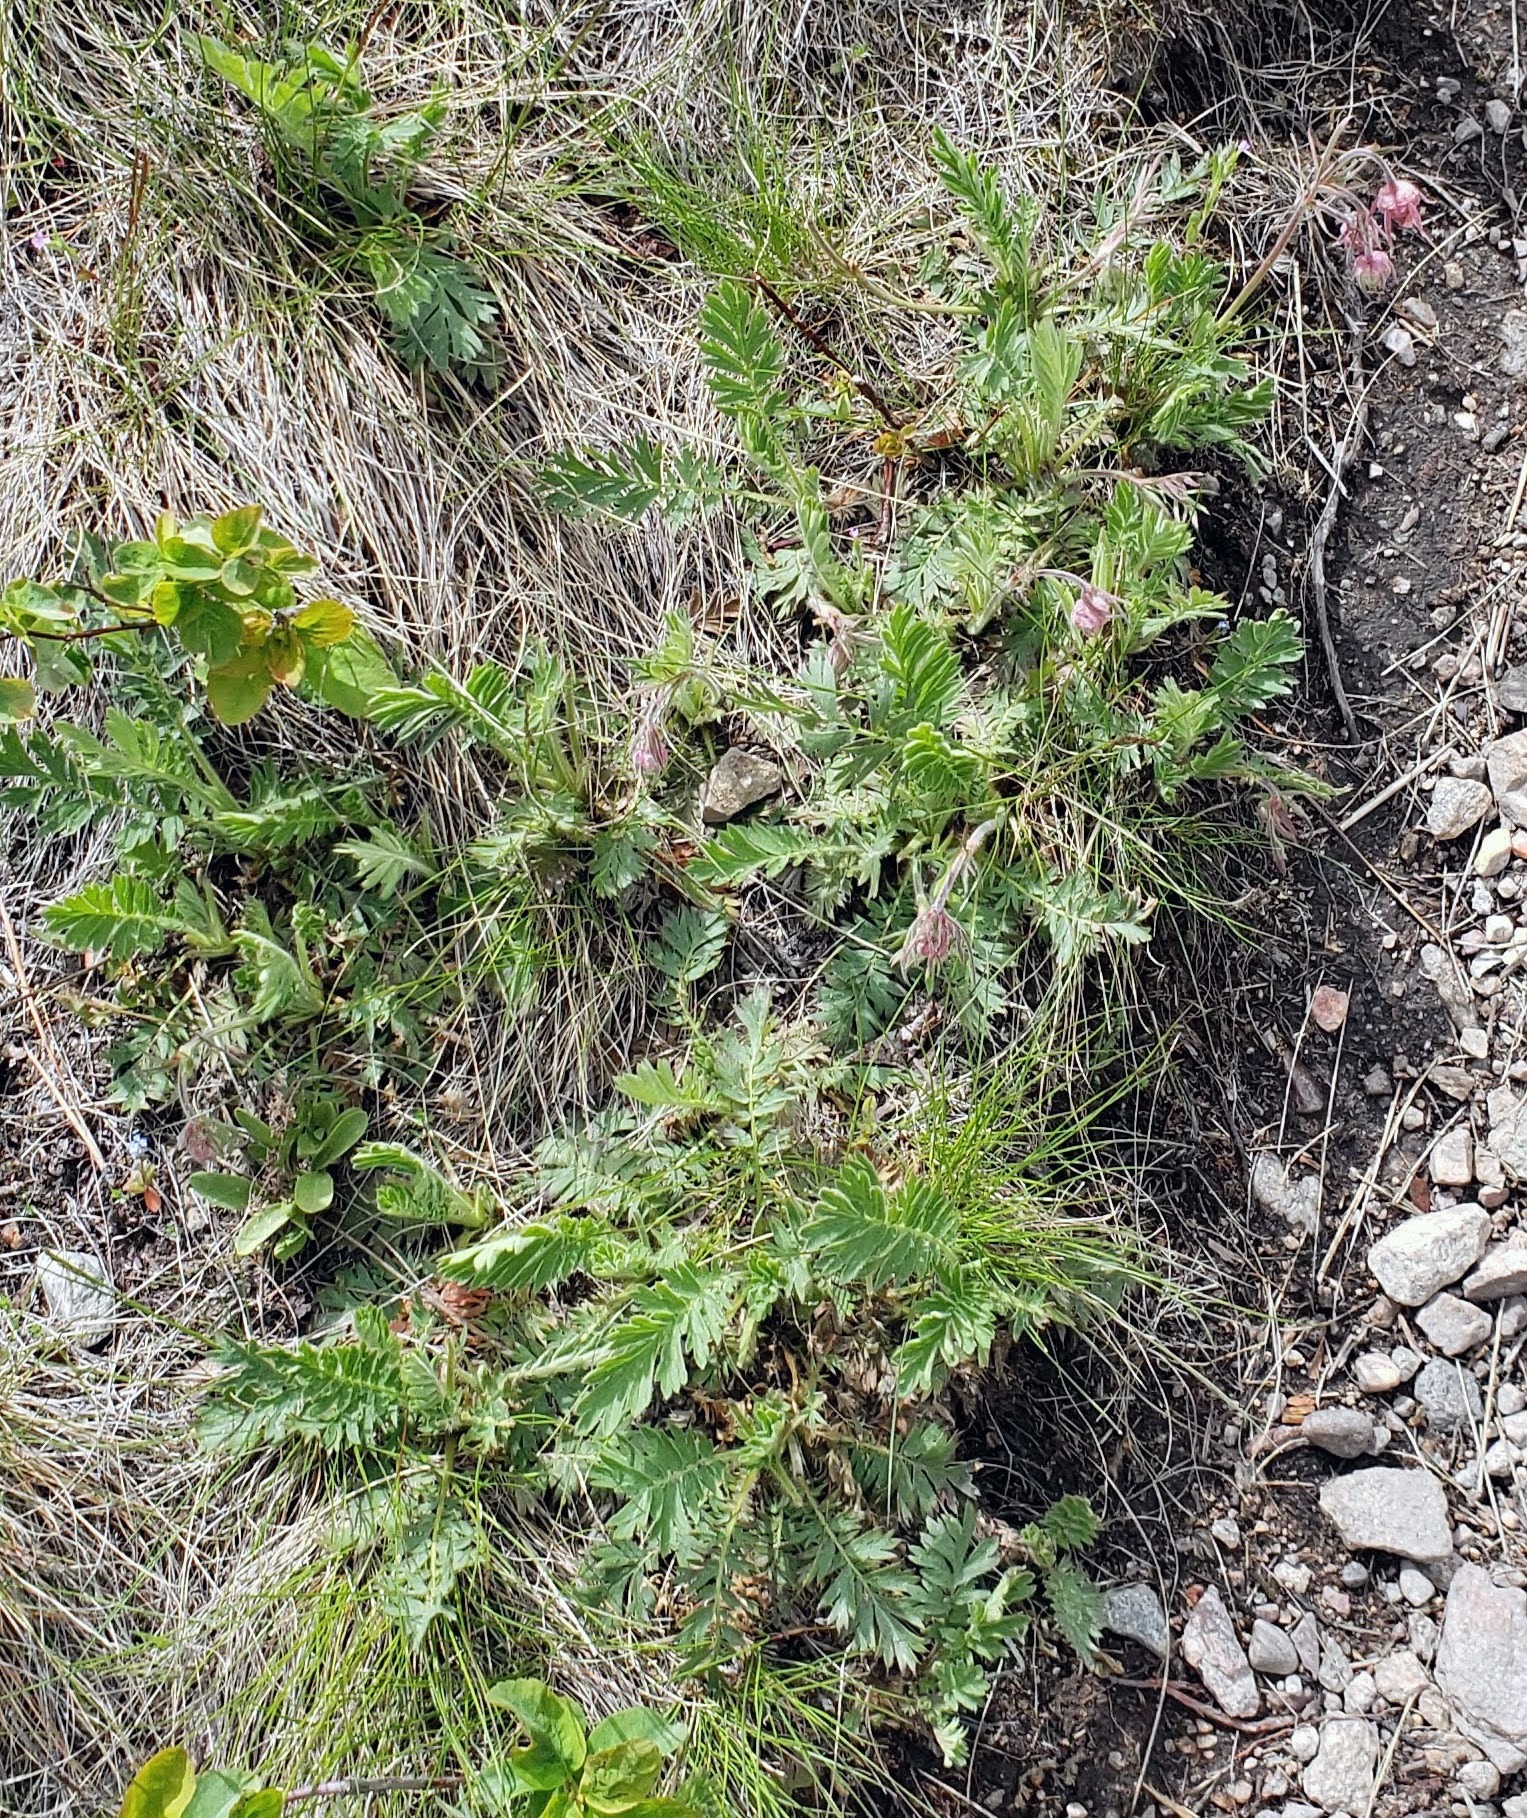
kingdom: Plantae
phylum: Tracheophyta
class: Magnoliopsida
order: Rosales
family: Rosaceae
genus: Geum
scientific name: Geum triflorum
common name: Old man's whiskers
